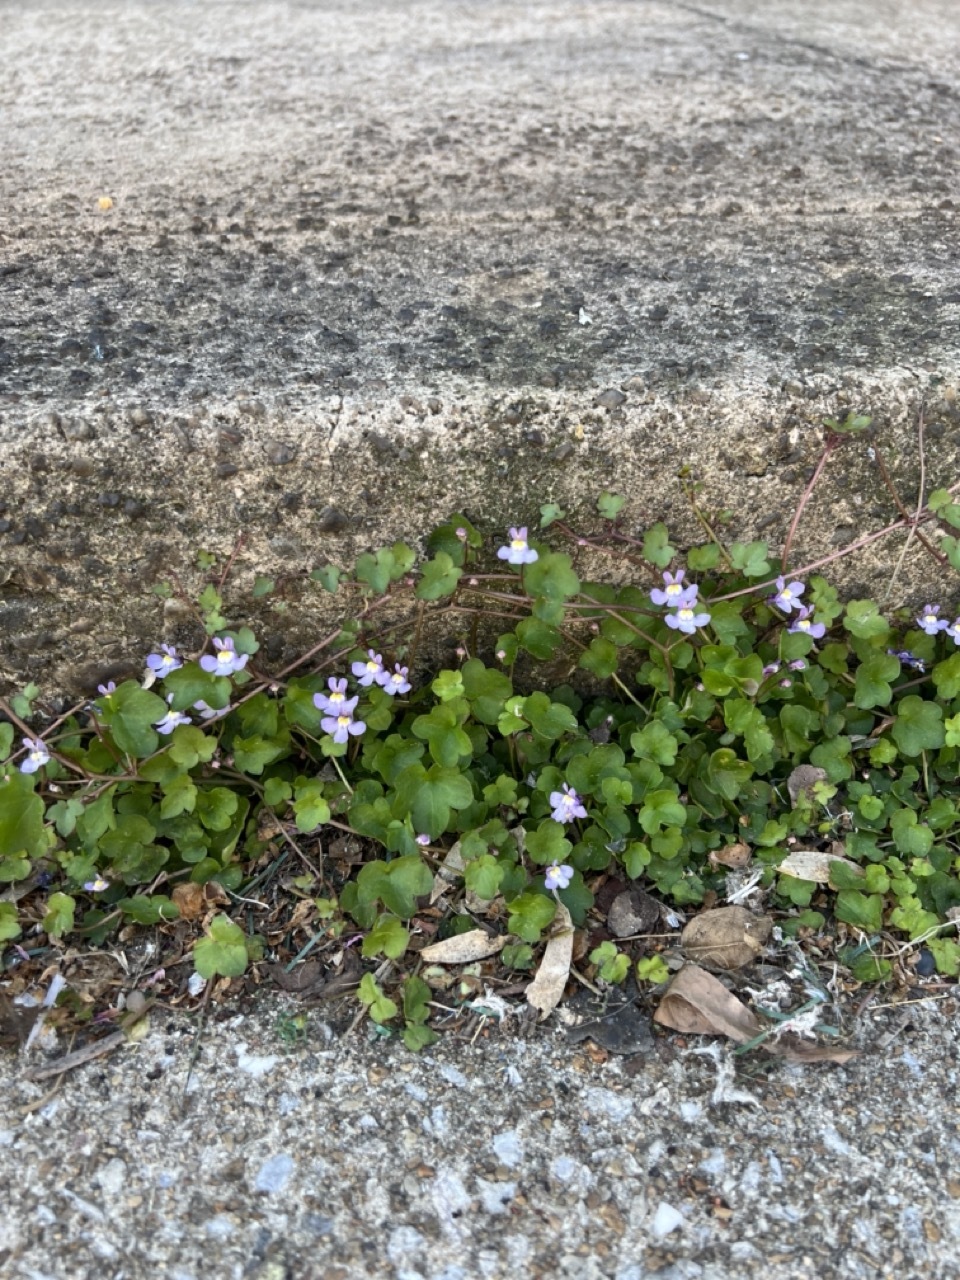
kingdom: Plantae
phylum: Tracheophyta
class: Magnoliopsida
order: Lamiales
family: Plantaginaceae
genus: Cymbalaria
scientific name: Cymbalaria muralis
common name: Ivy-leaved toadflax
